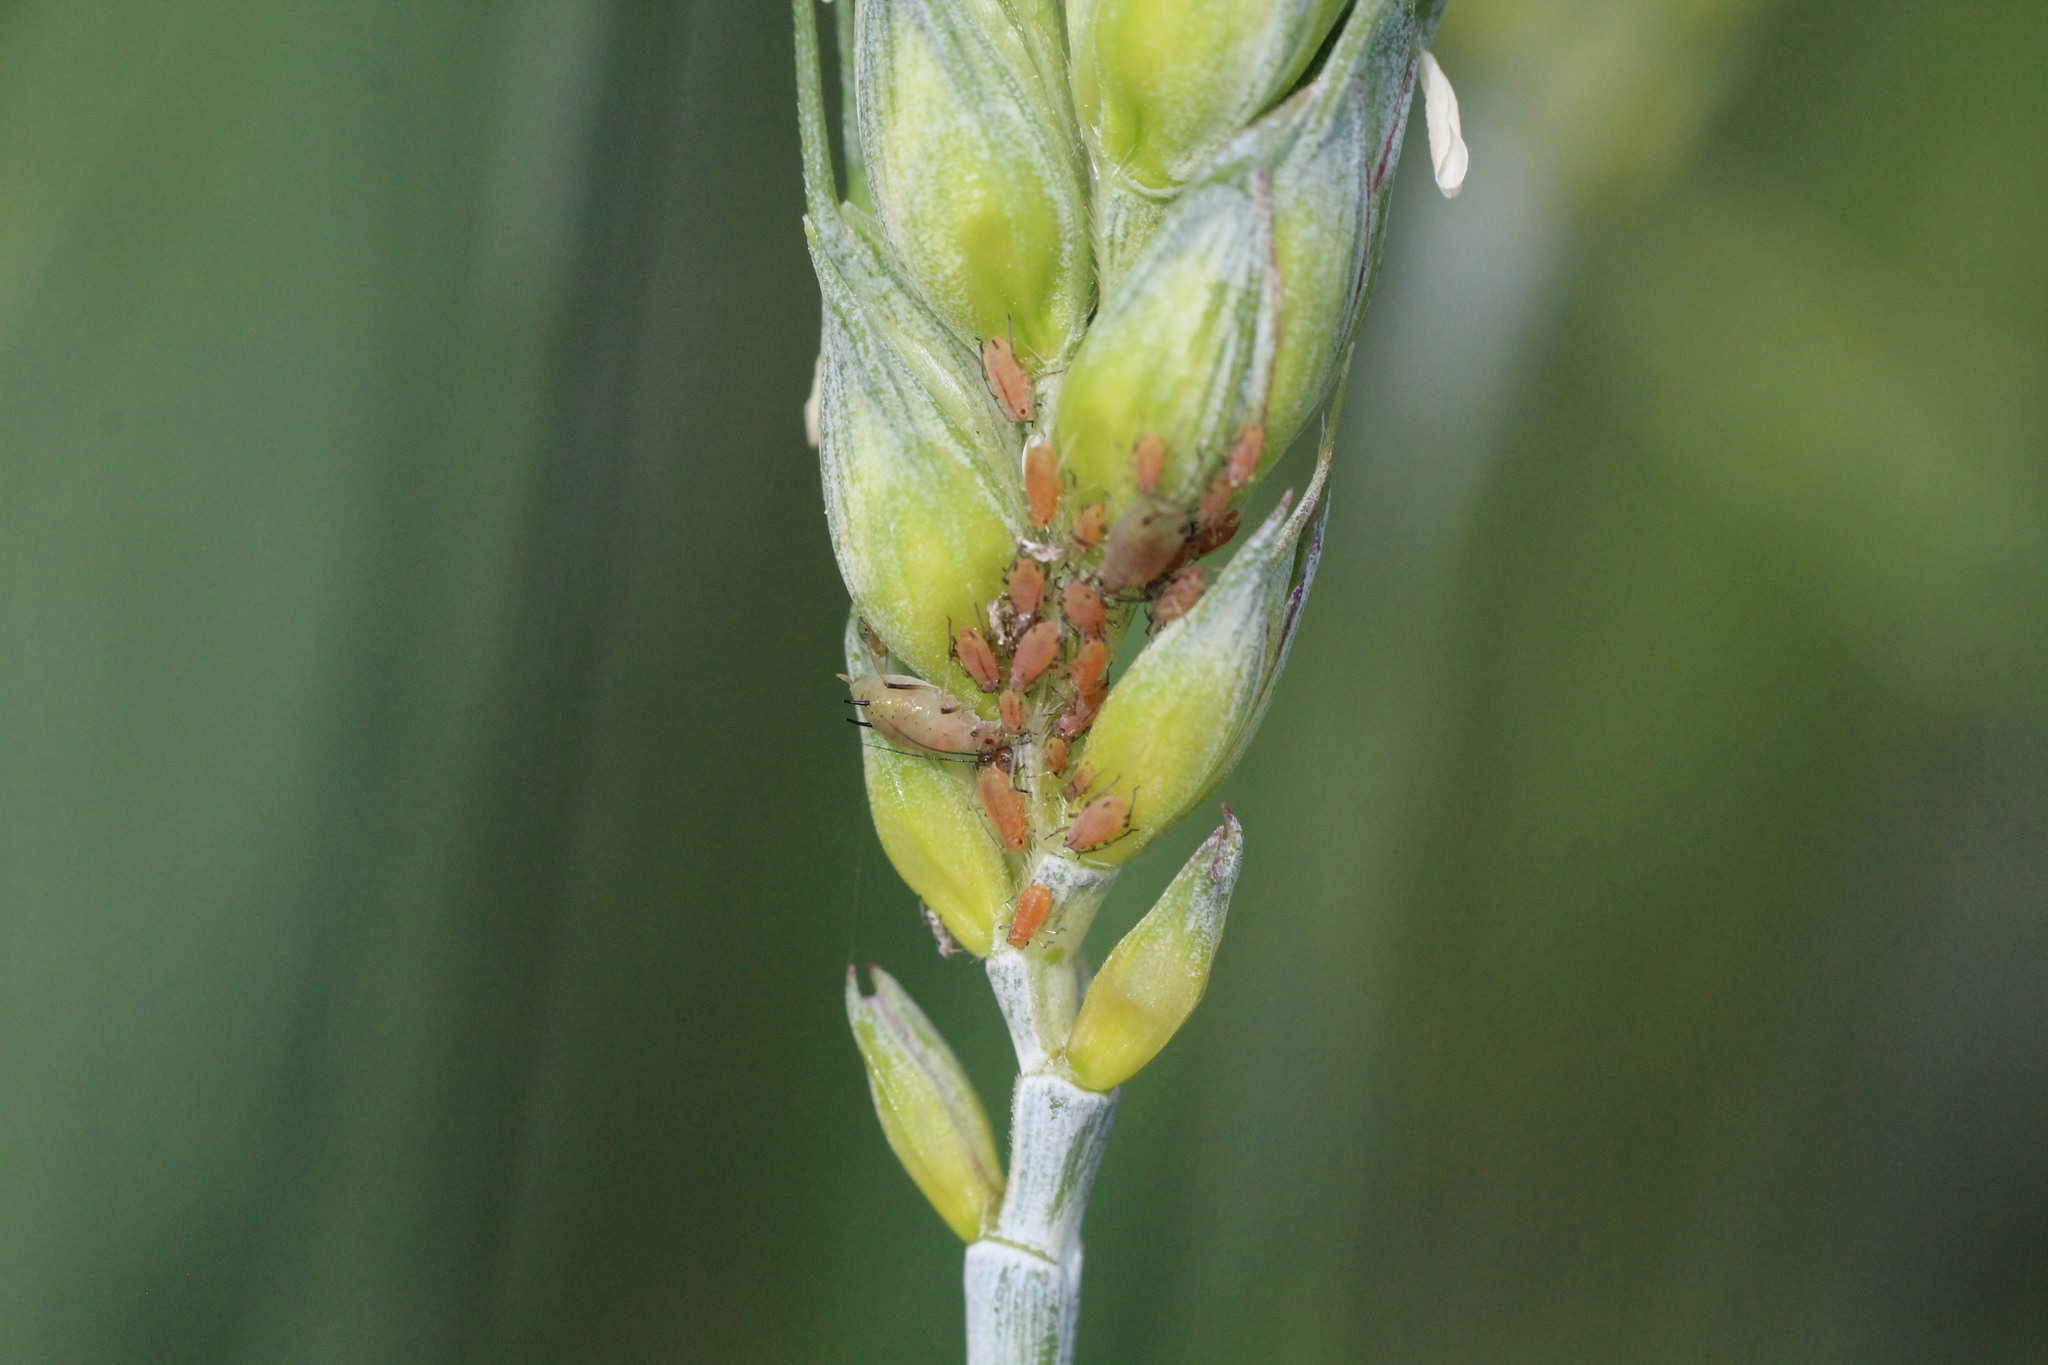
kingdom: Animalia
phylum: Arthropoda
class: Insecta
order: Hemiptera
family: Aphididae
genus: Sitobion
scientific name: Sitobion avenae
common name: English grain aphid
